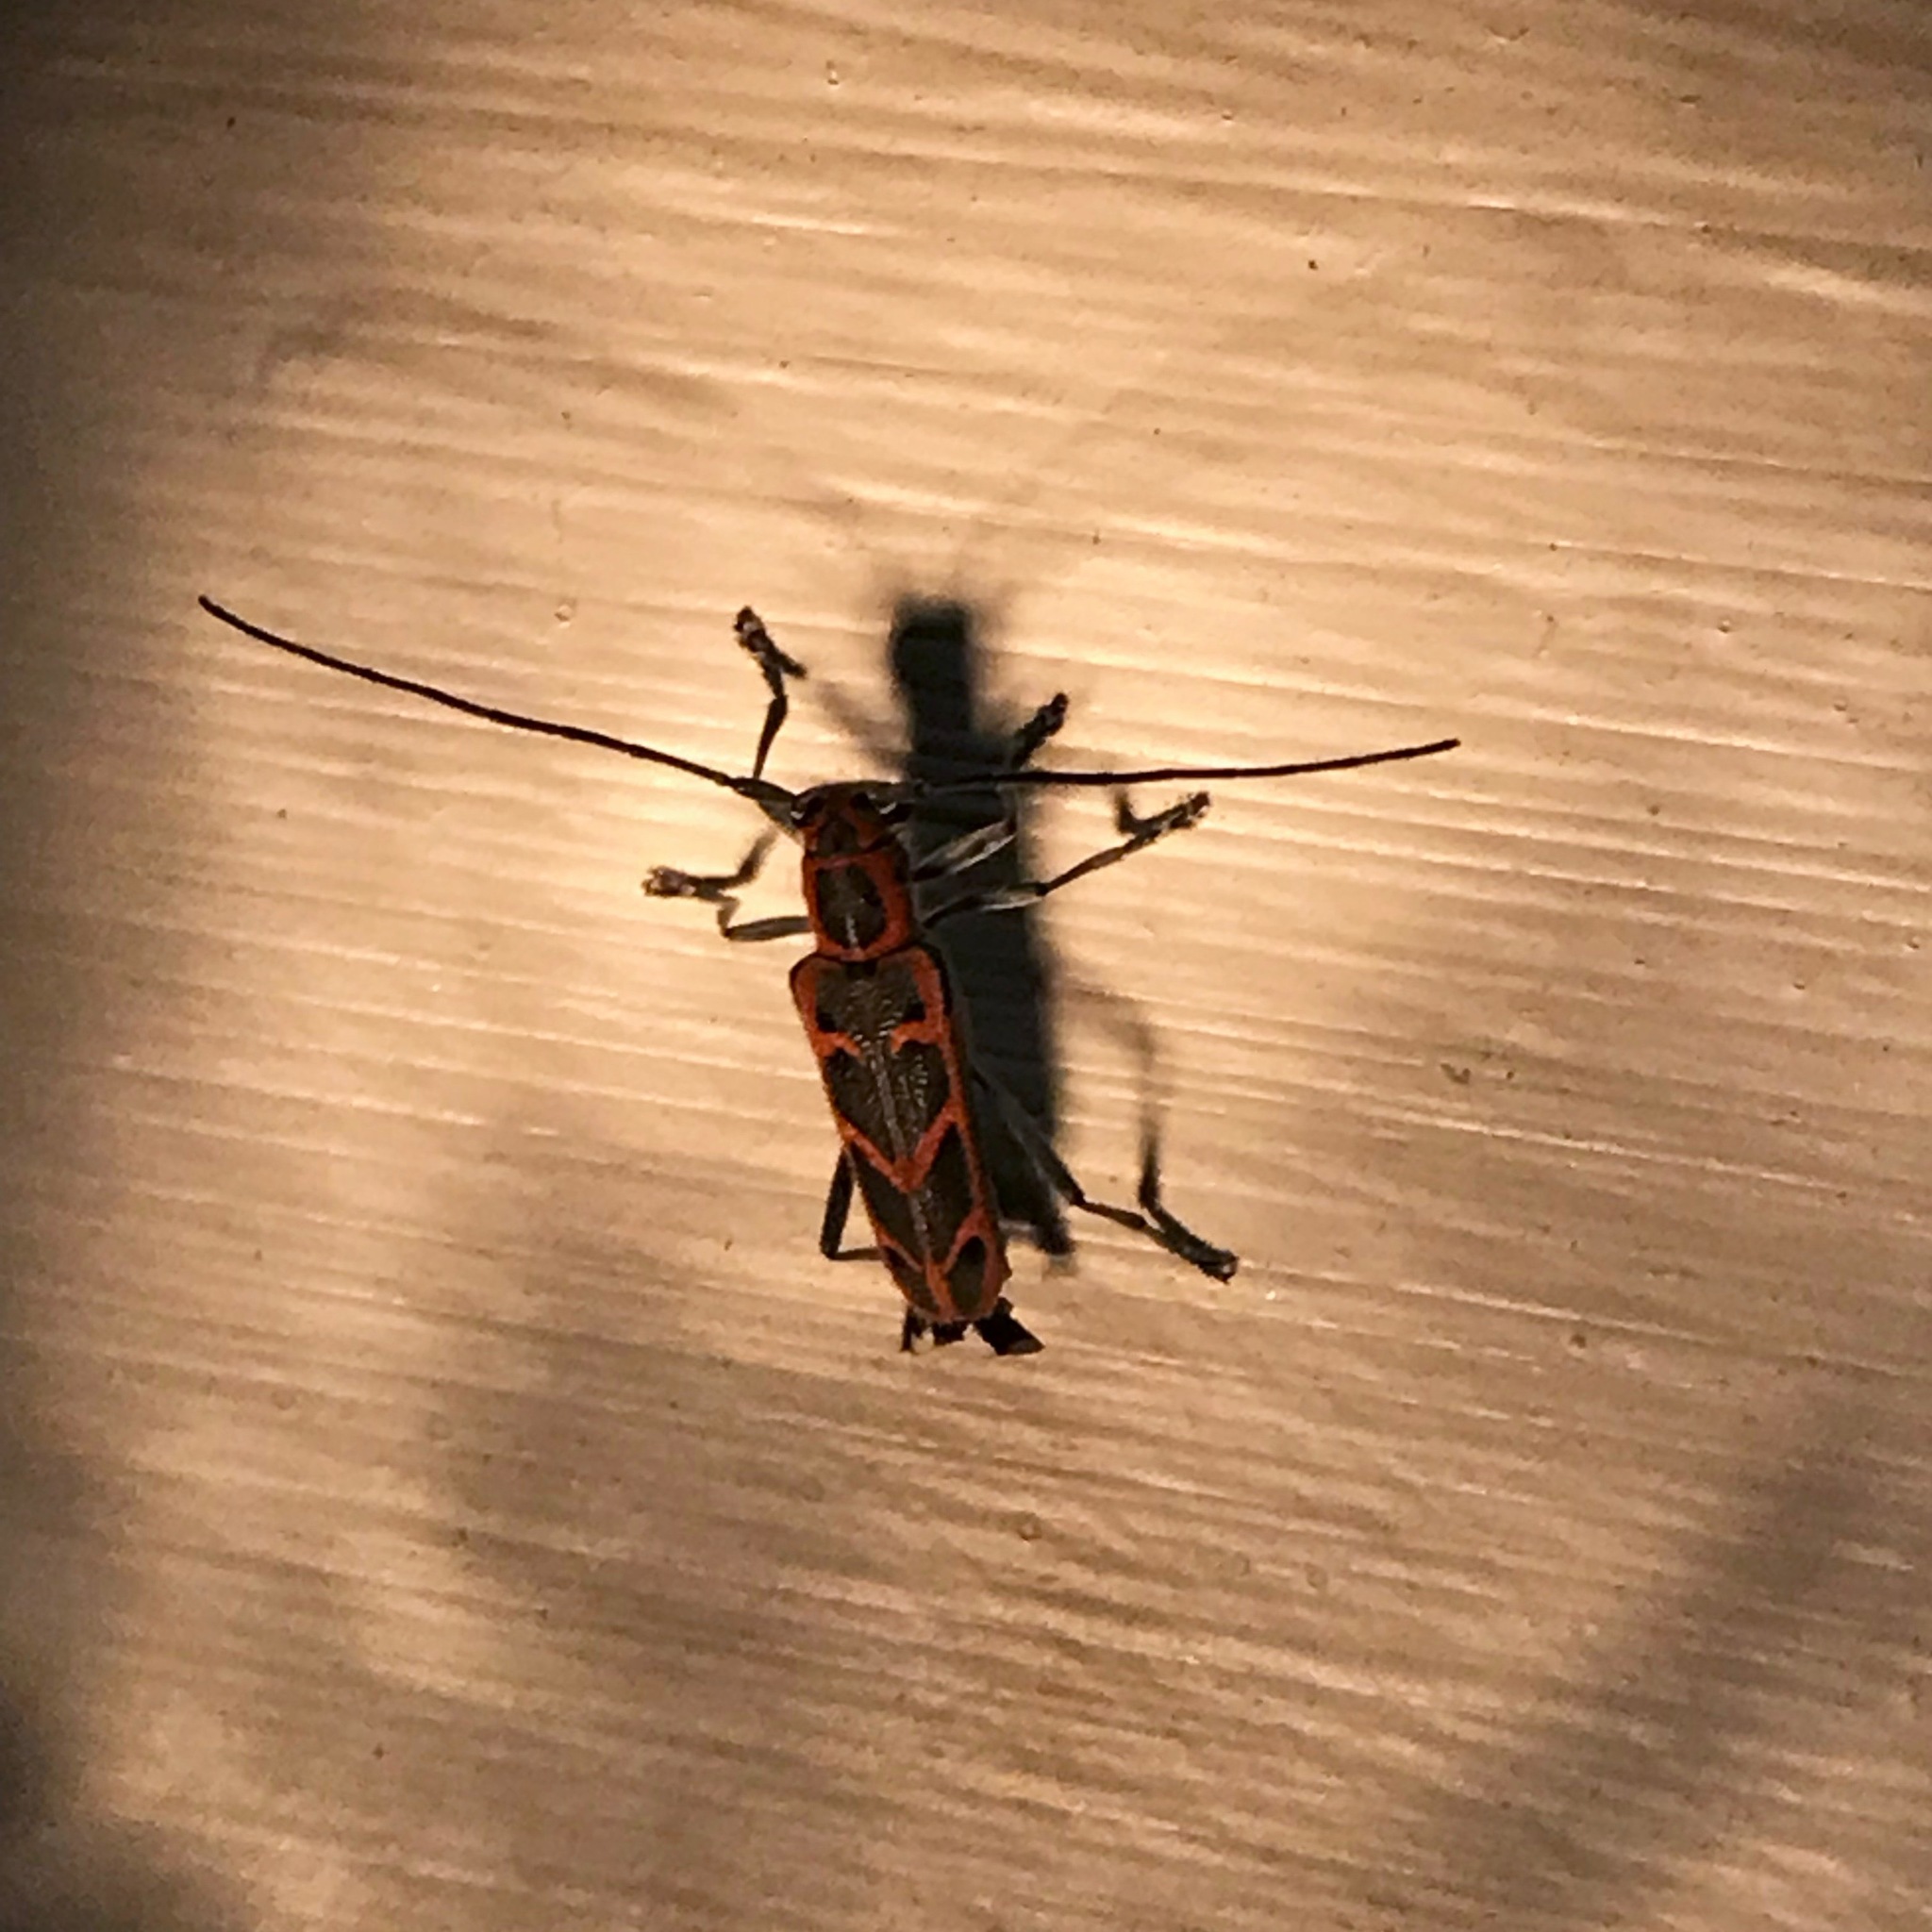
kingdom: Animalia
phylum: Arthropoda
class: Insecta
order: Coleoptera
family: Cerambycidae
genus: Saperda
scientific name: Saperda tridentata
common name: Elm borer
